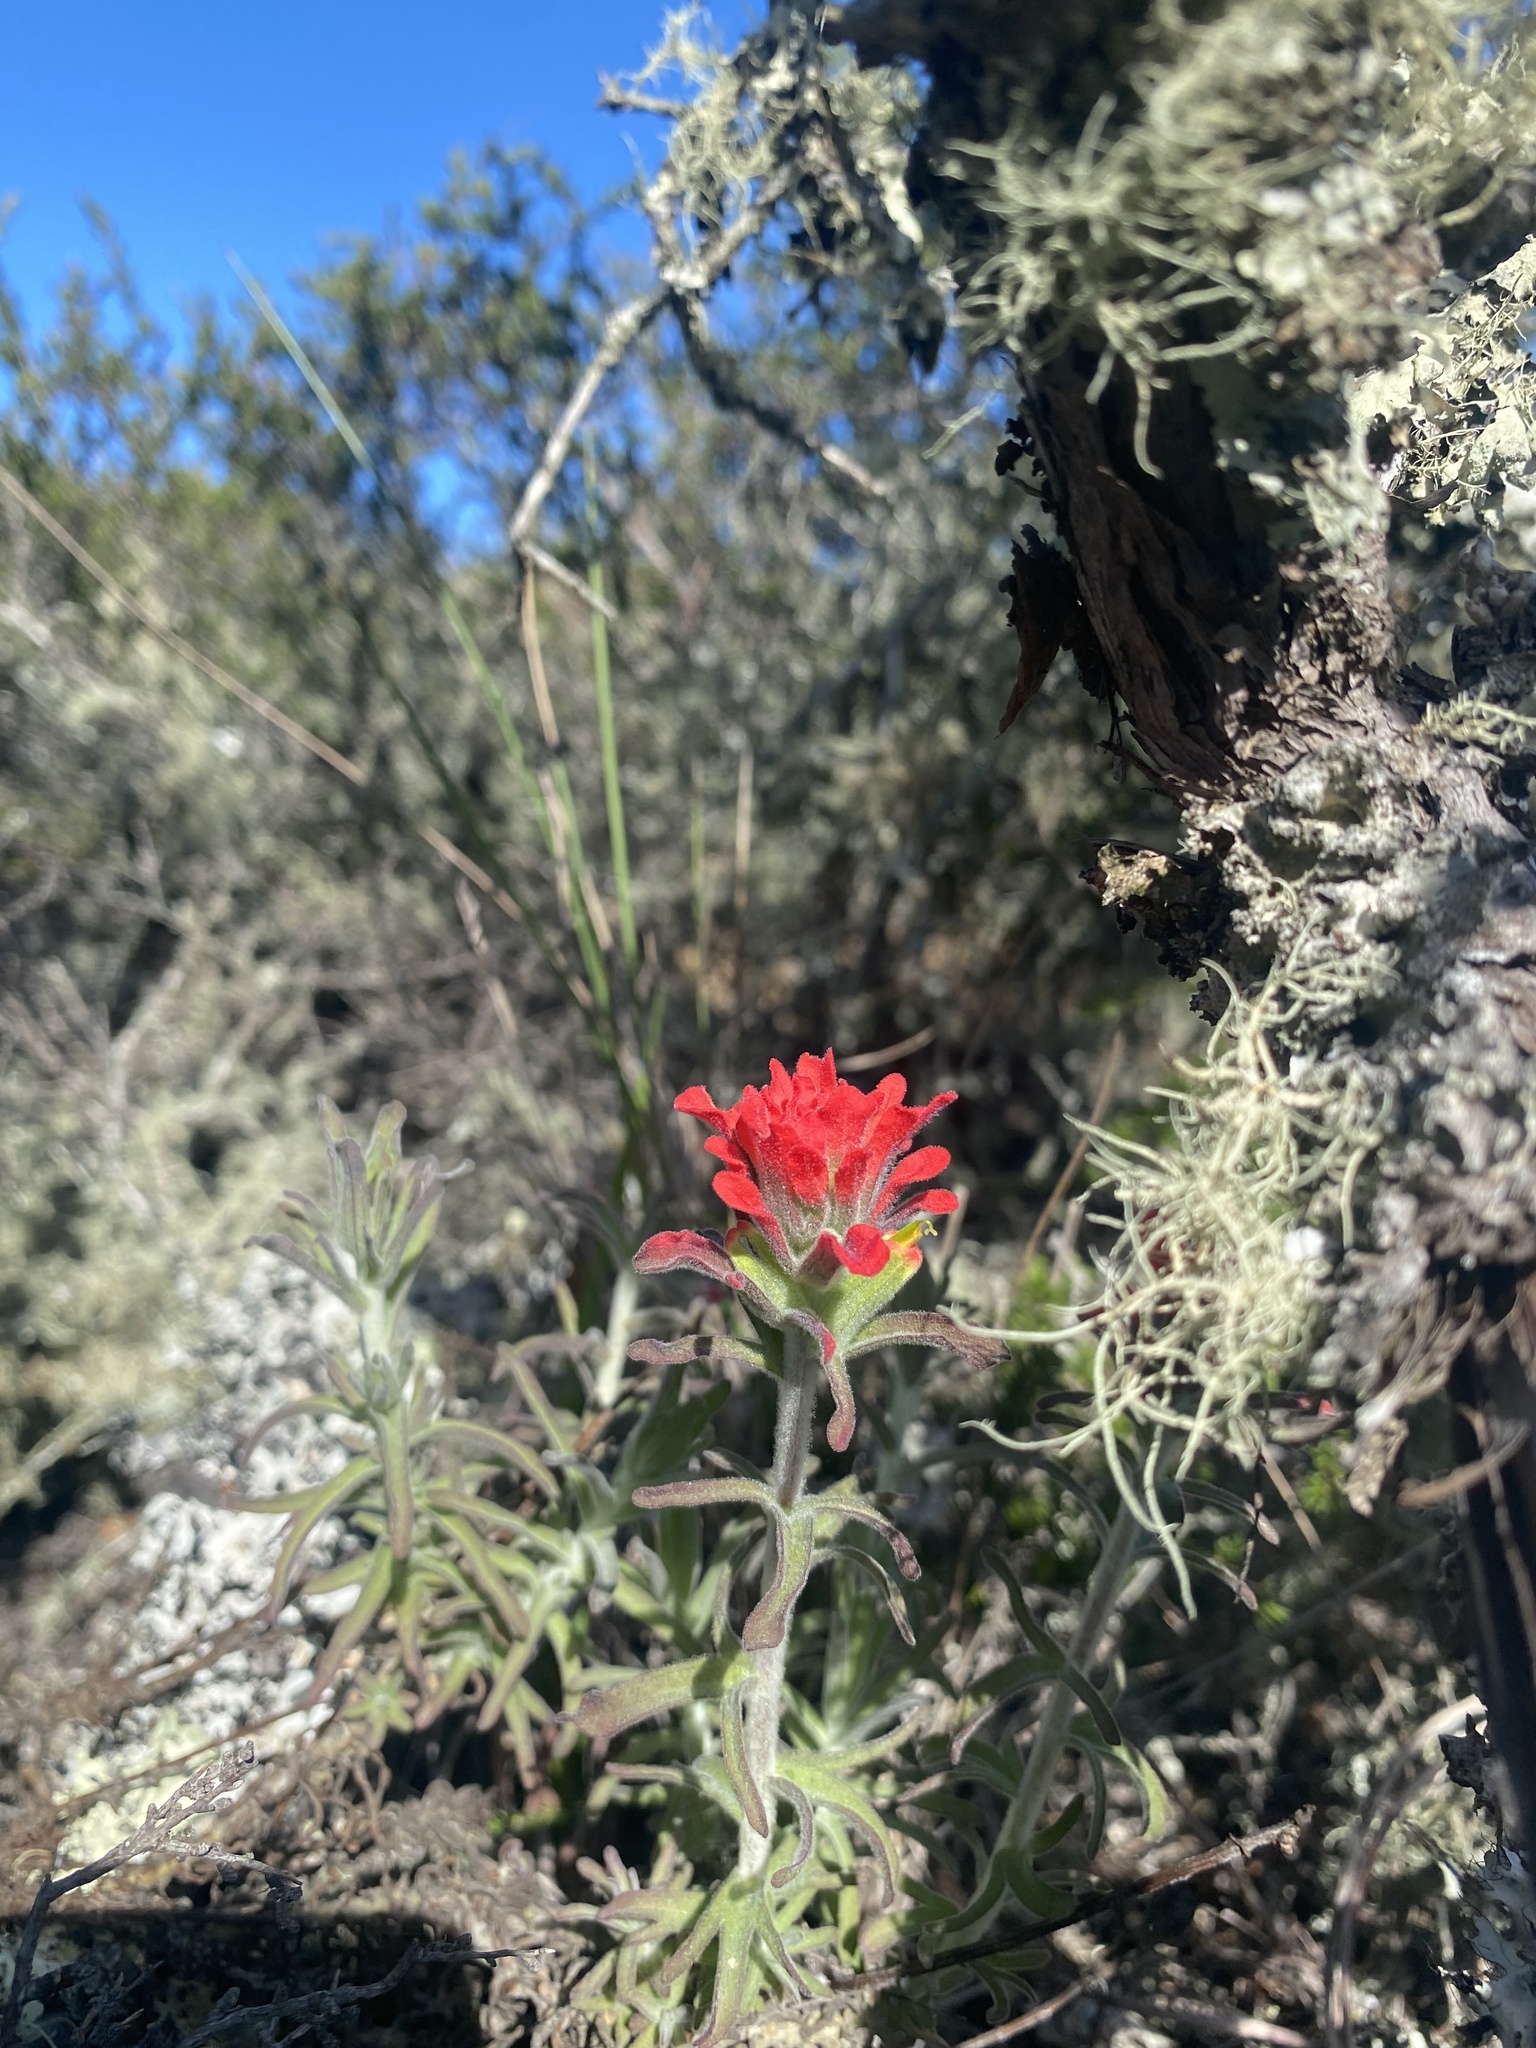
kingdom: Plantae
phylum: Tracheophyta
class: Magnoliopsida
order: Lamiales
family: Orobanchaceae
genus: Castilleja
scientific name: Castilleja foliolosa
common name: Woolly indian paintbrush
